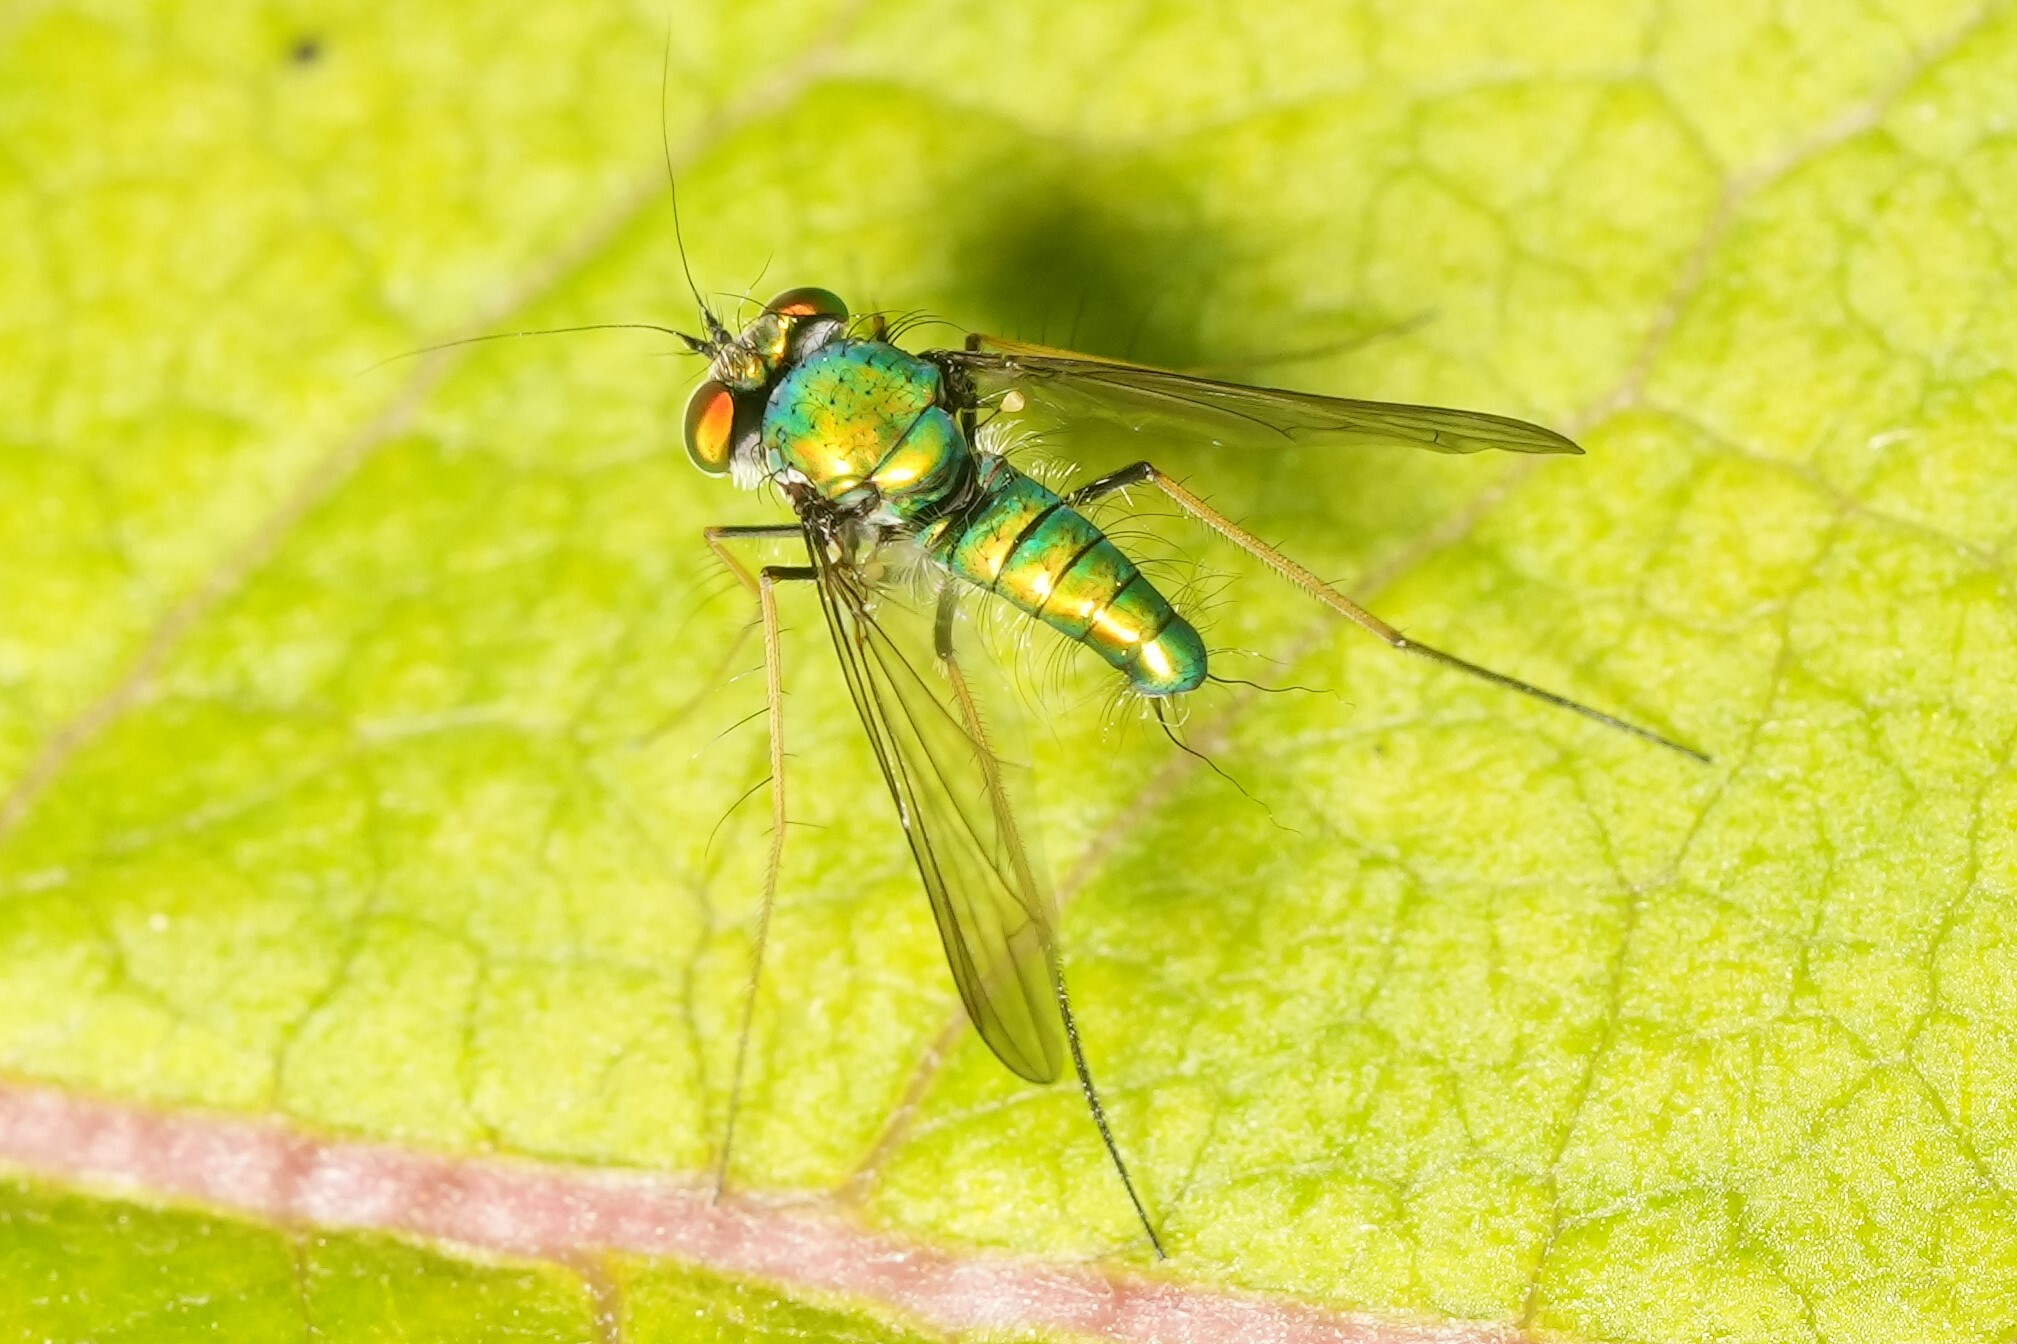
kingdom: Animalia
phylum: Arthropoda
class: Insecta
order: Diptera
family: Dolichopodidae
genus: Condylostylus
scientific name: Condylostylus comatus
